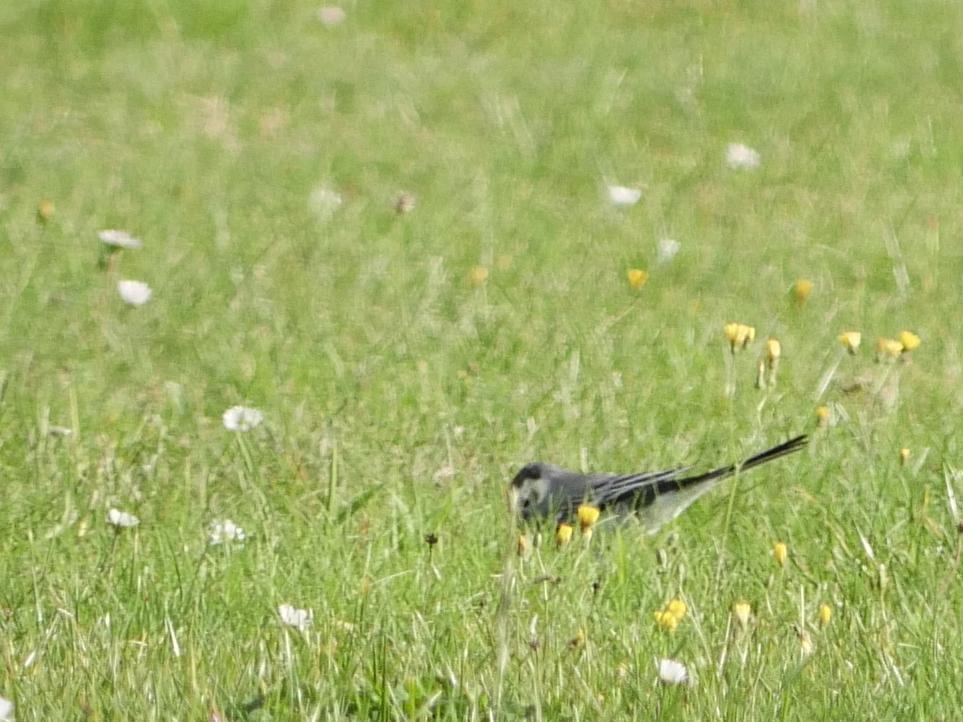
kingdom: Animalia
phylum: Chordata
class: Aves
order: Passeriformes
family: Motacillidae
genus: Motacilla
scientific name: Motacilla alba
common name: White wagtail
